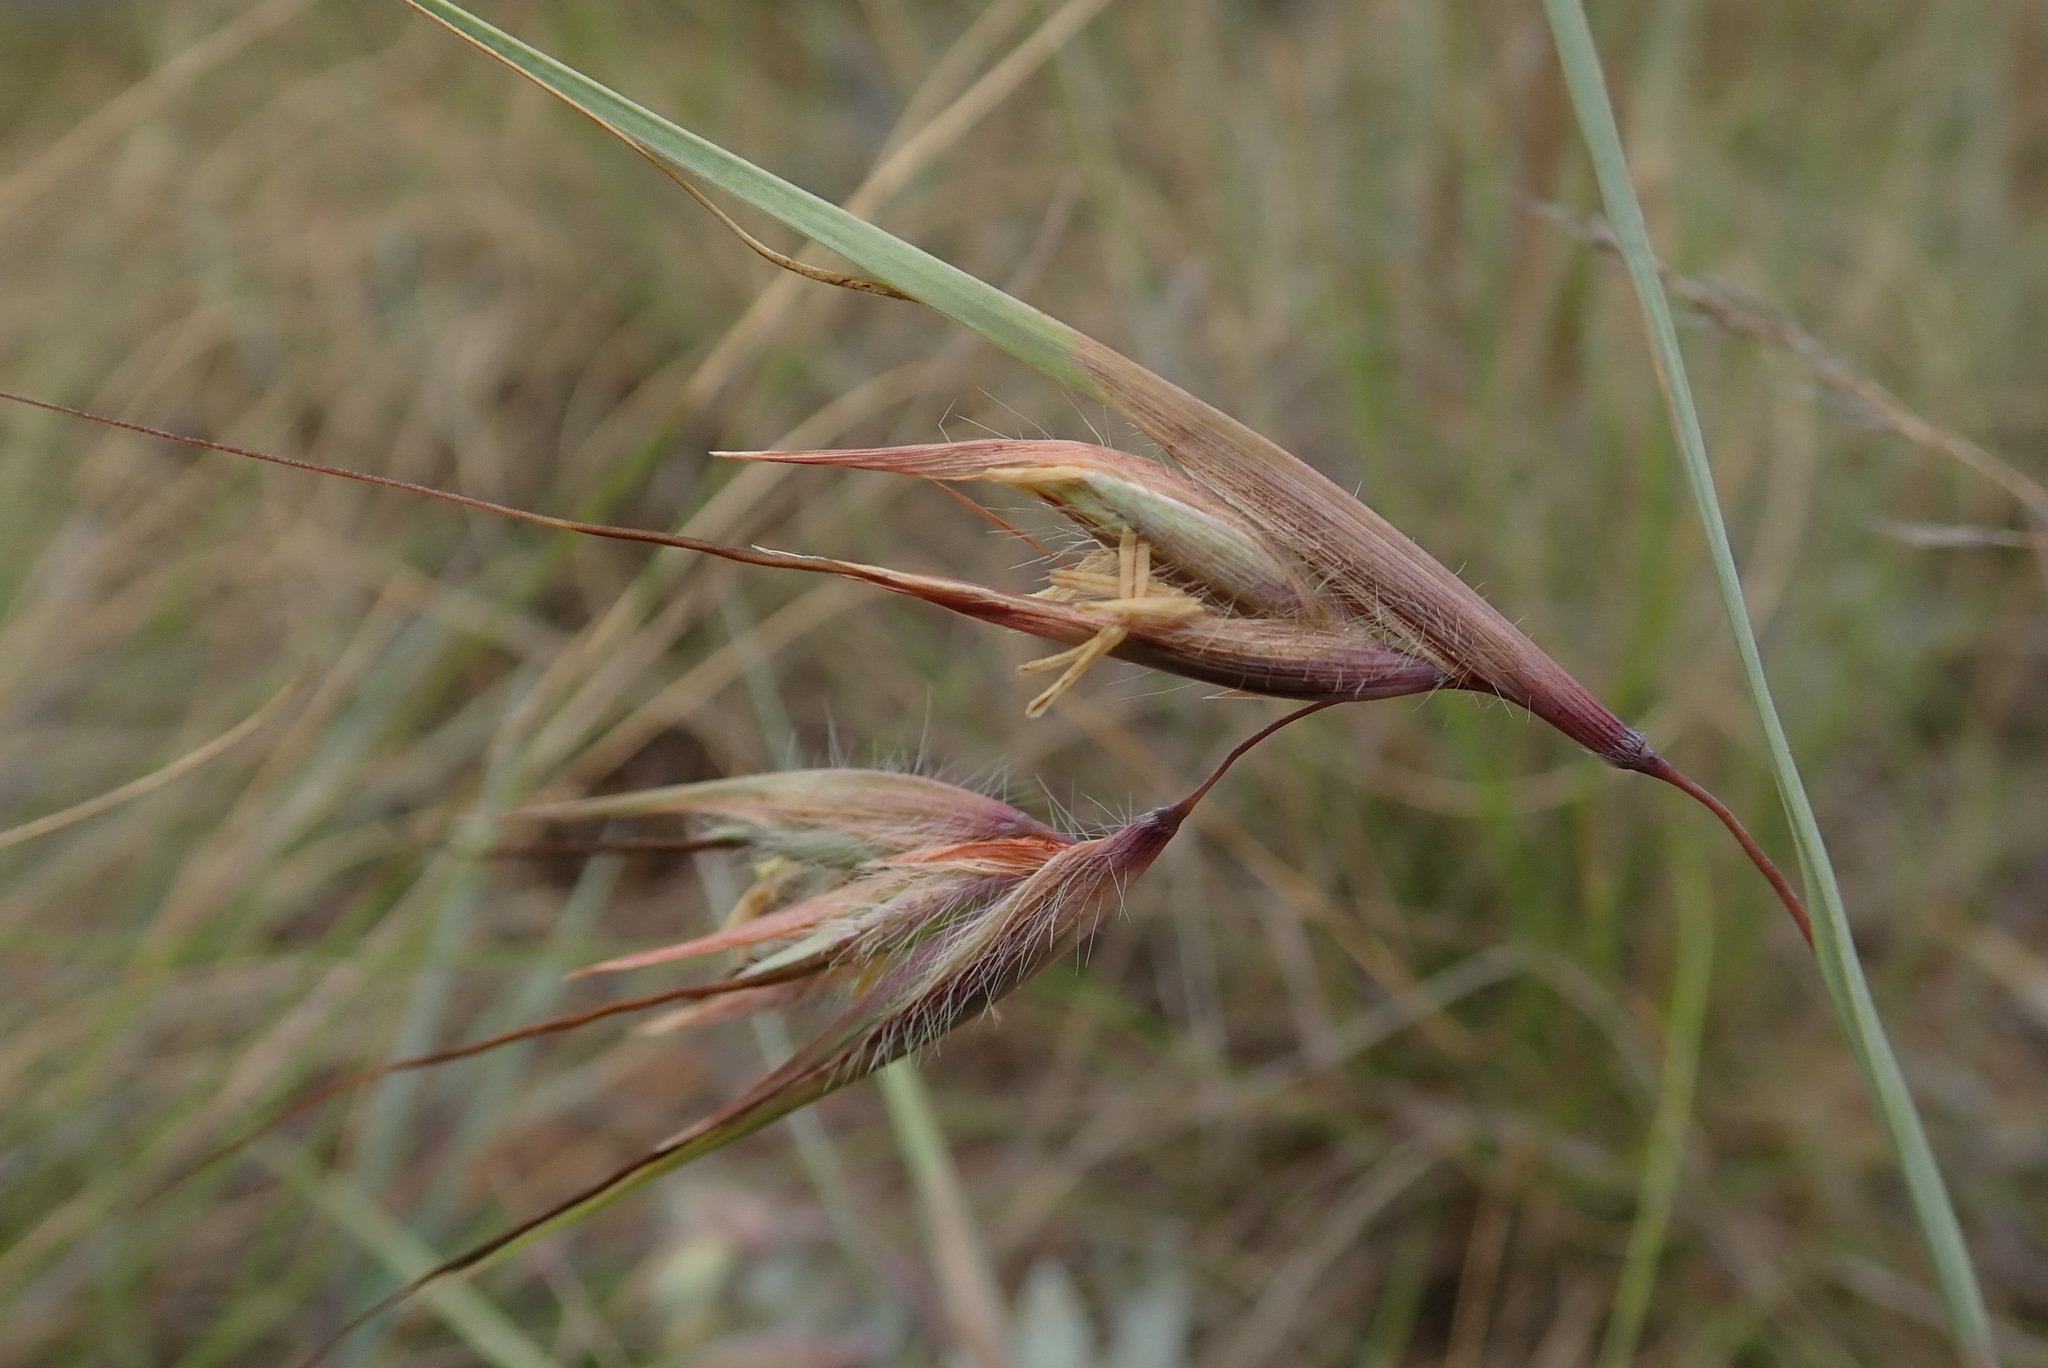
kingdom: Plantae
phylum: Tracheophyta
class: Liliopsida
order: Poales
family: Poaceae
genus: Themeda
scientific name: Themeda triandra
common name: Kangaroo grass
